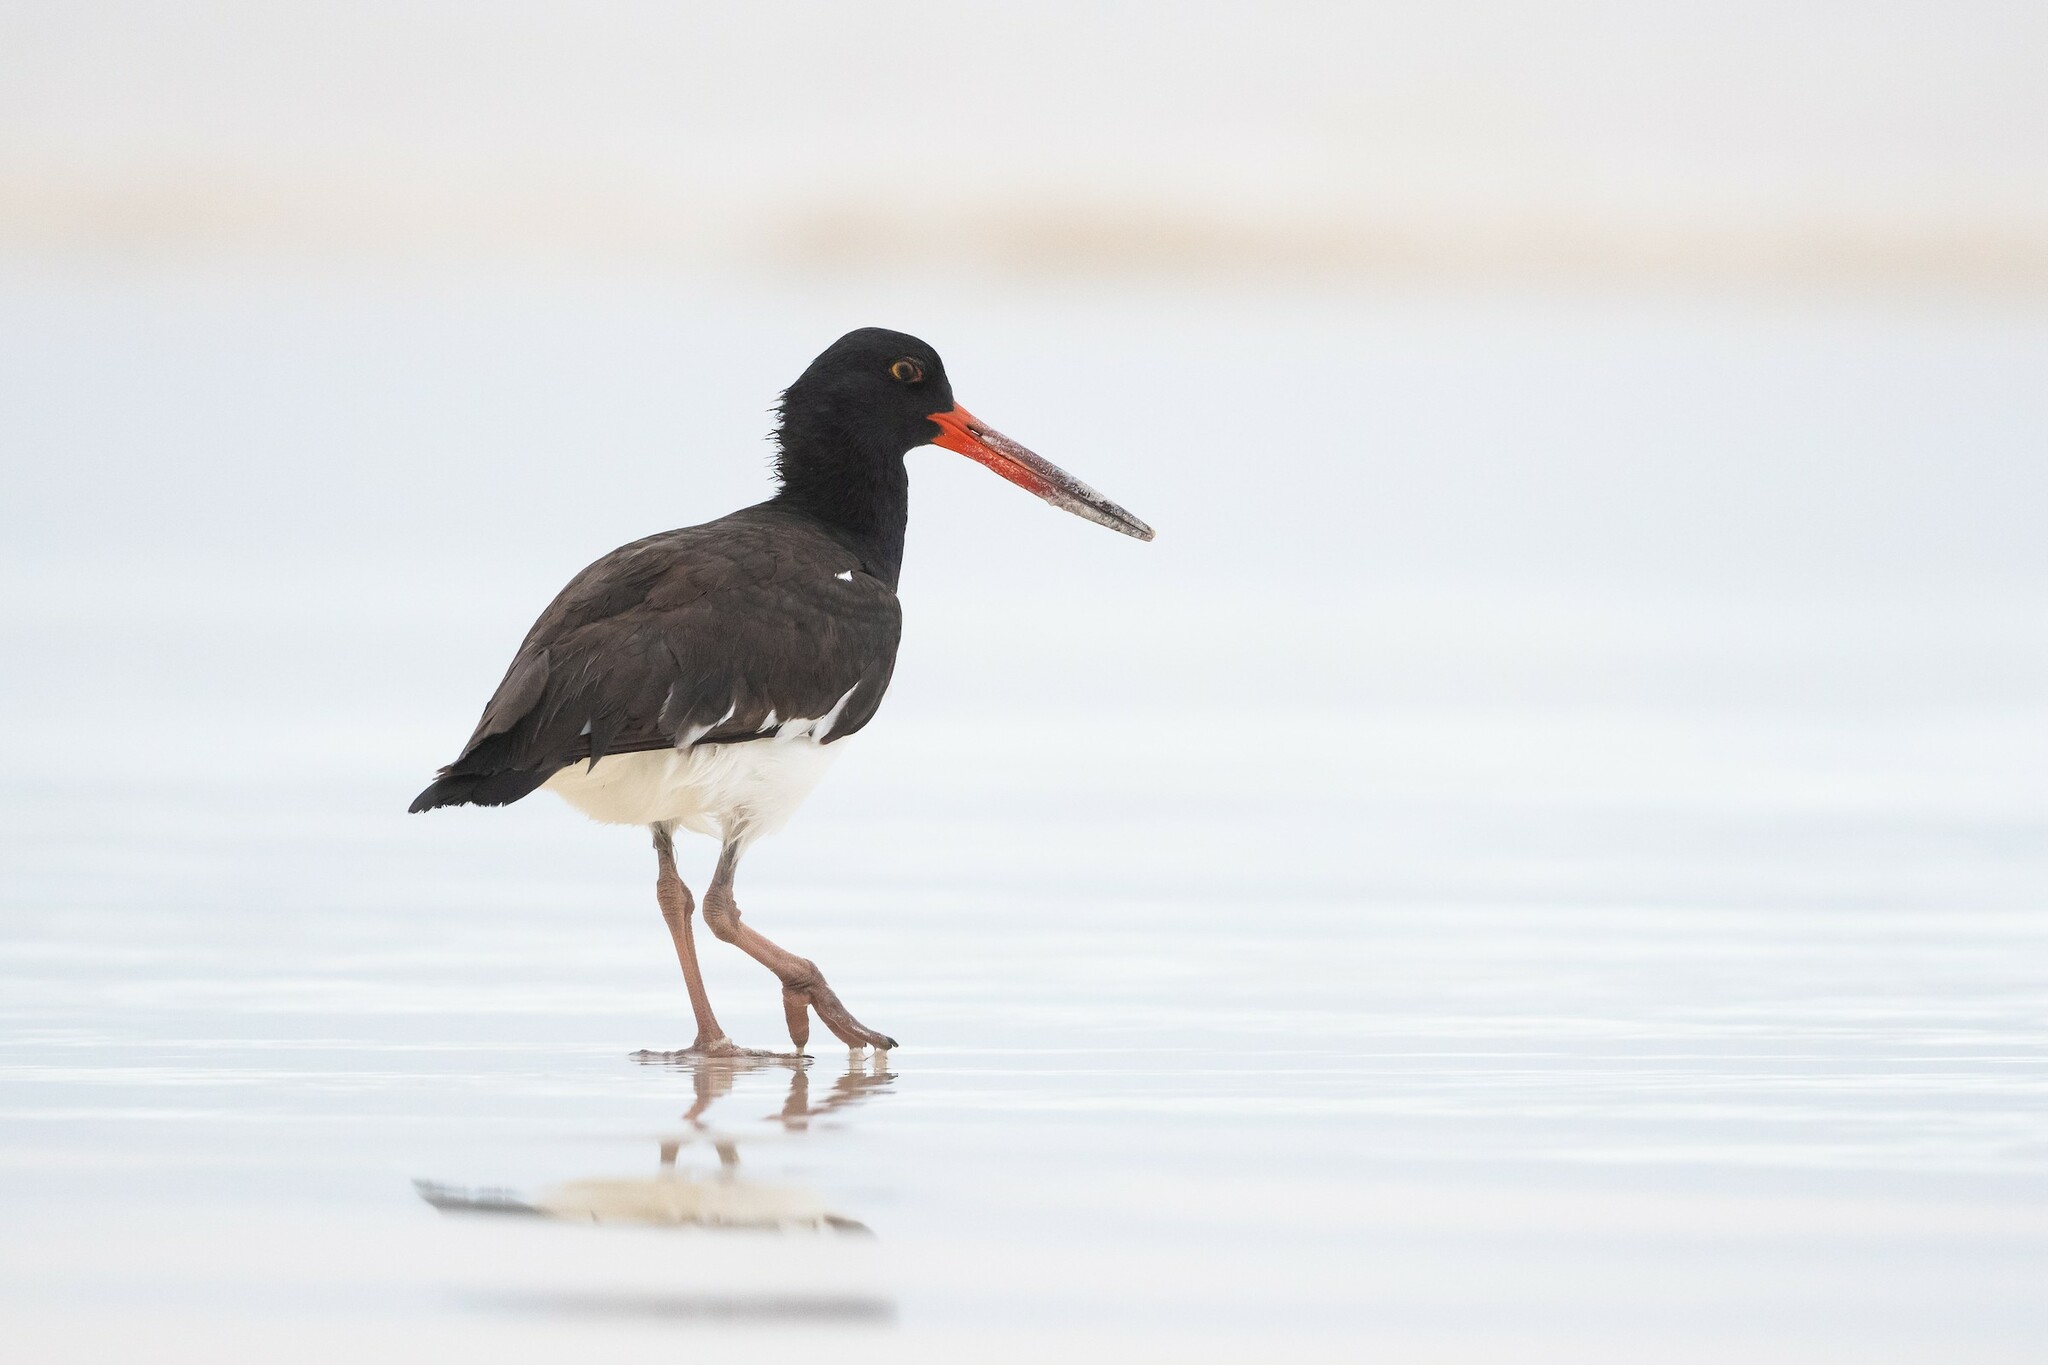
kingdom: Animalia
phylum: Chordata
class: Aves
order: Charadriiformes
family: Haematopodidae
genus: Haematopus
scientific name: Haematopus palliatus
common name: American oystercatcher
